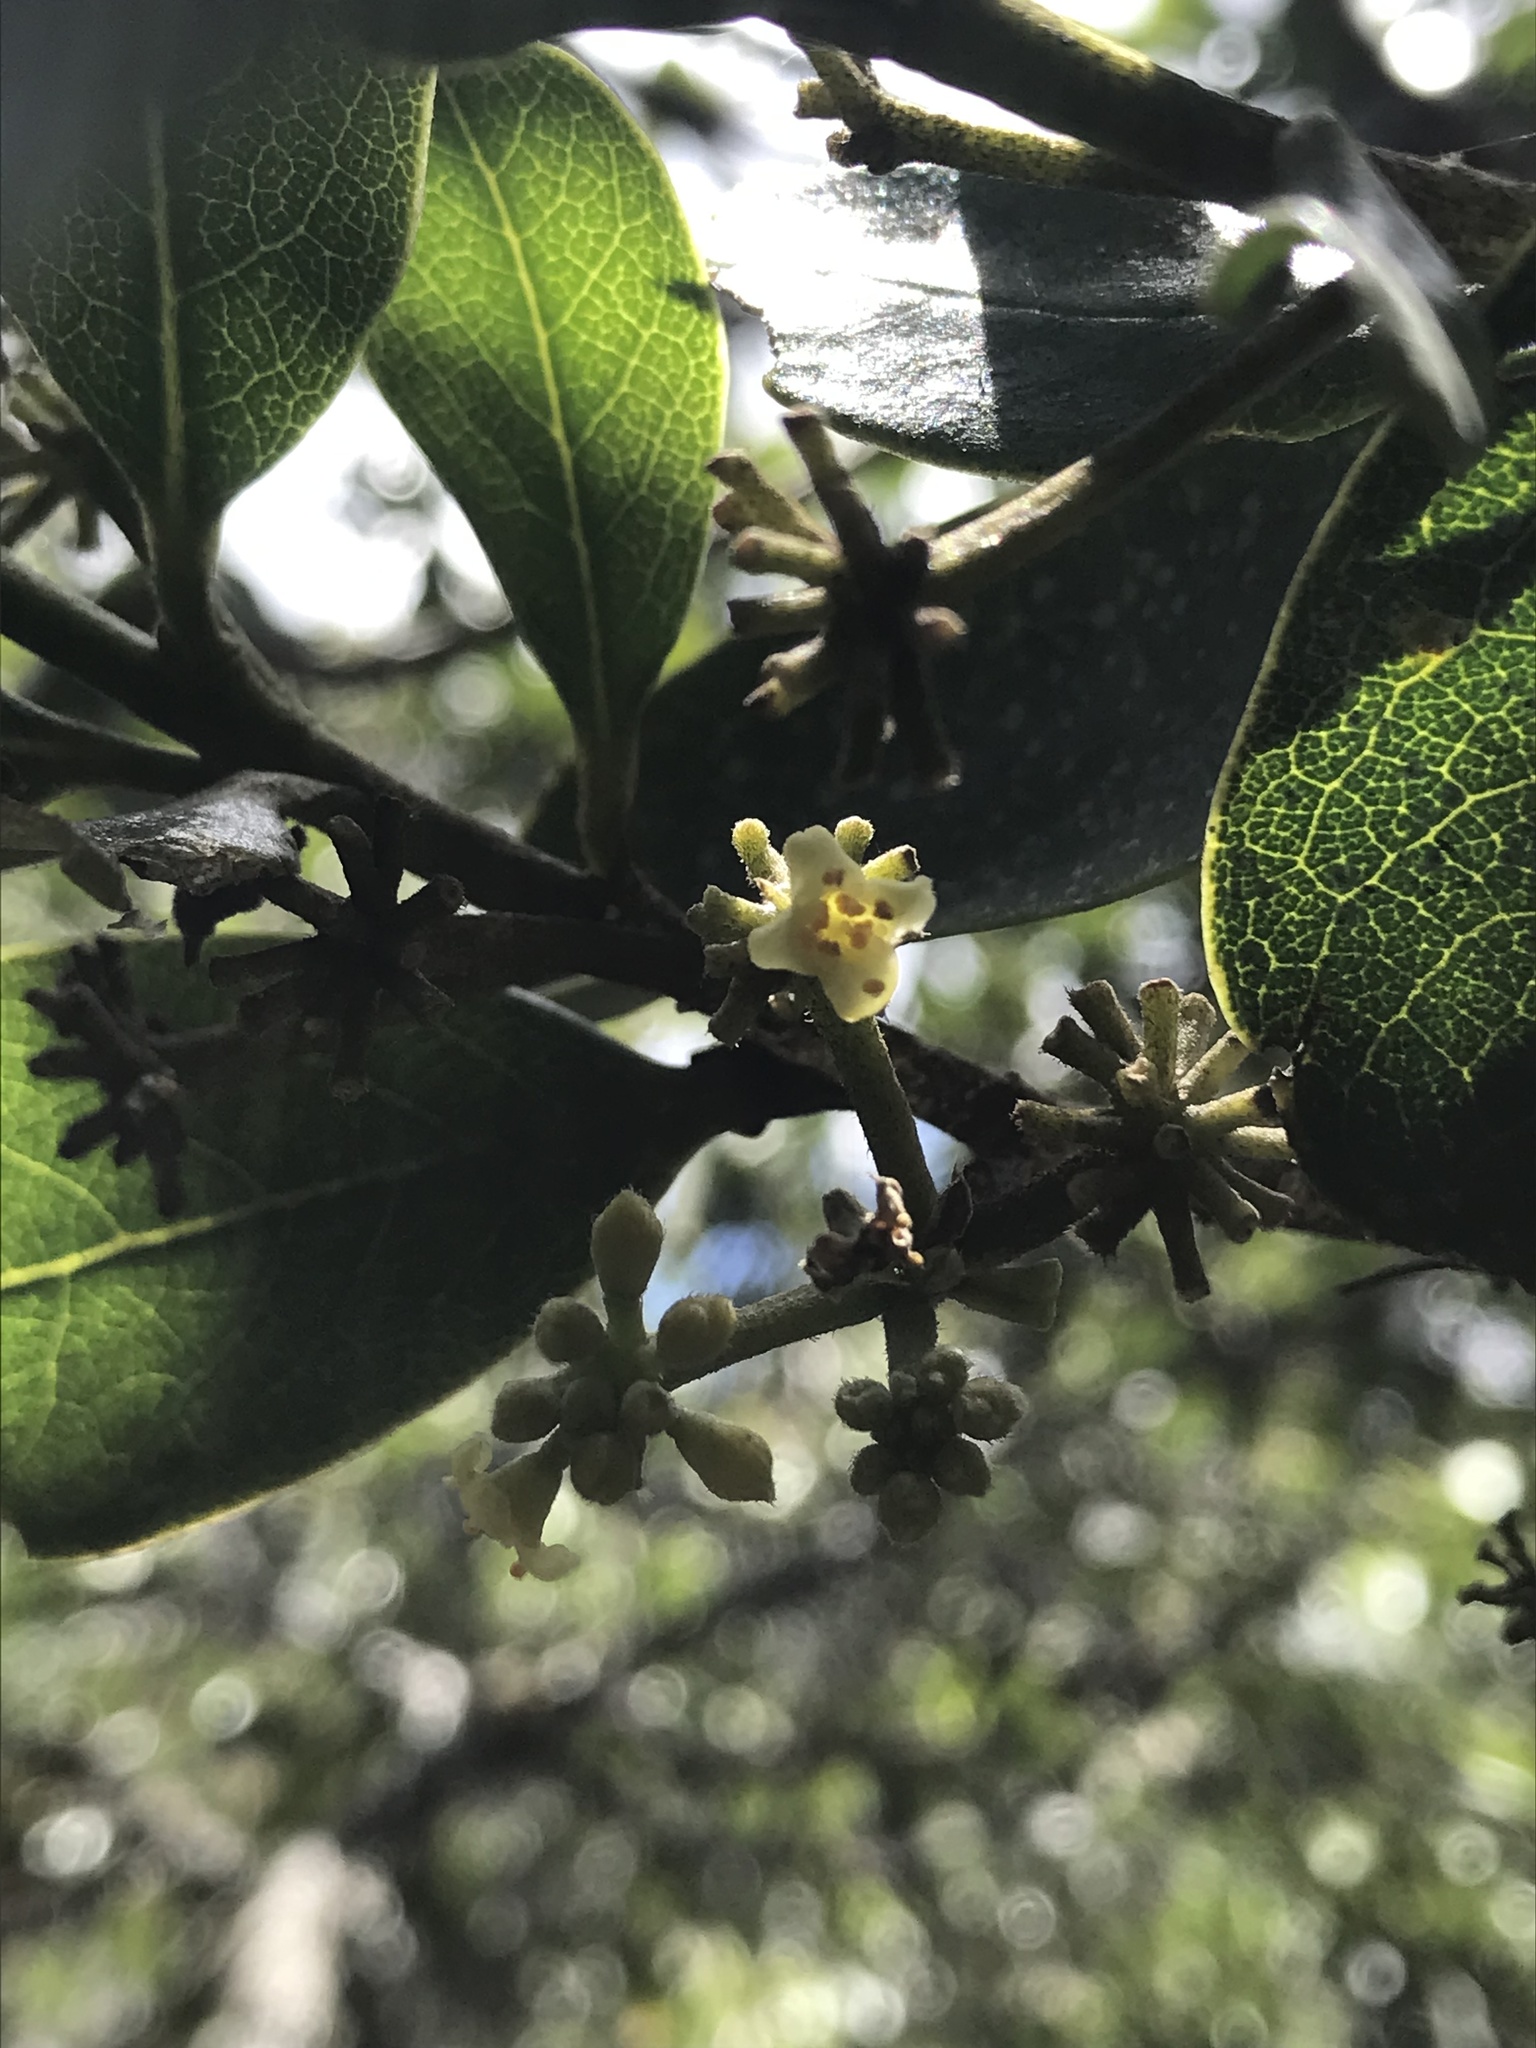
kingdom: Plantae
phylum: Tracheophyta
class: Magnoliopsida
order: Malvales
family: Thymelaeaceae
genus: Daphnopsis
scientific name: Daphnopsis caracasana
